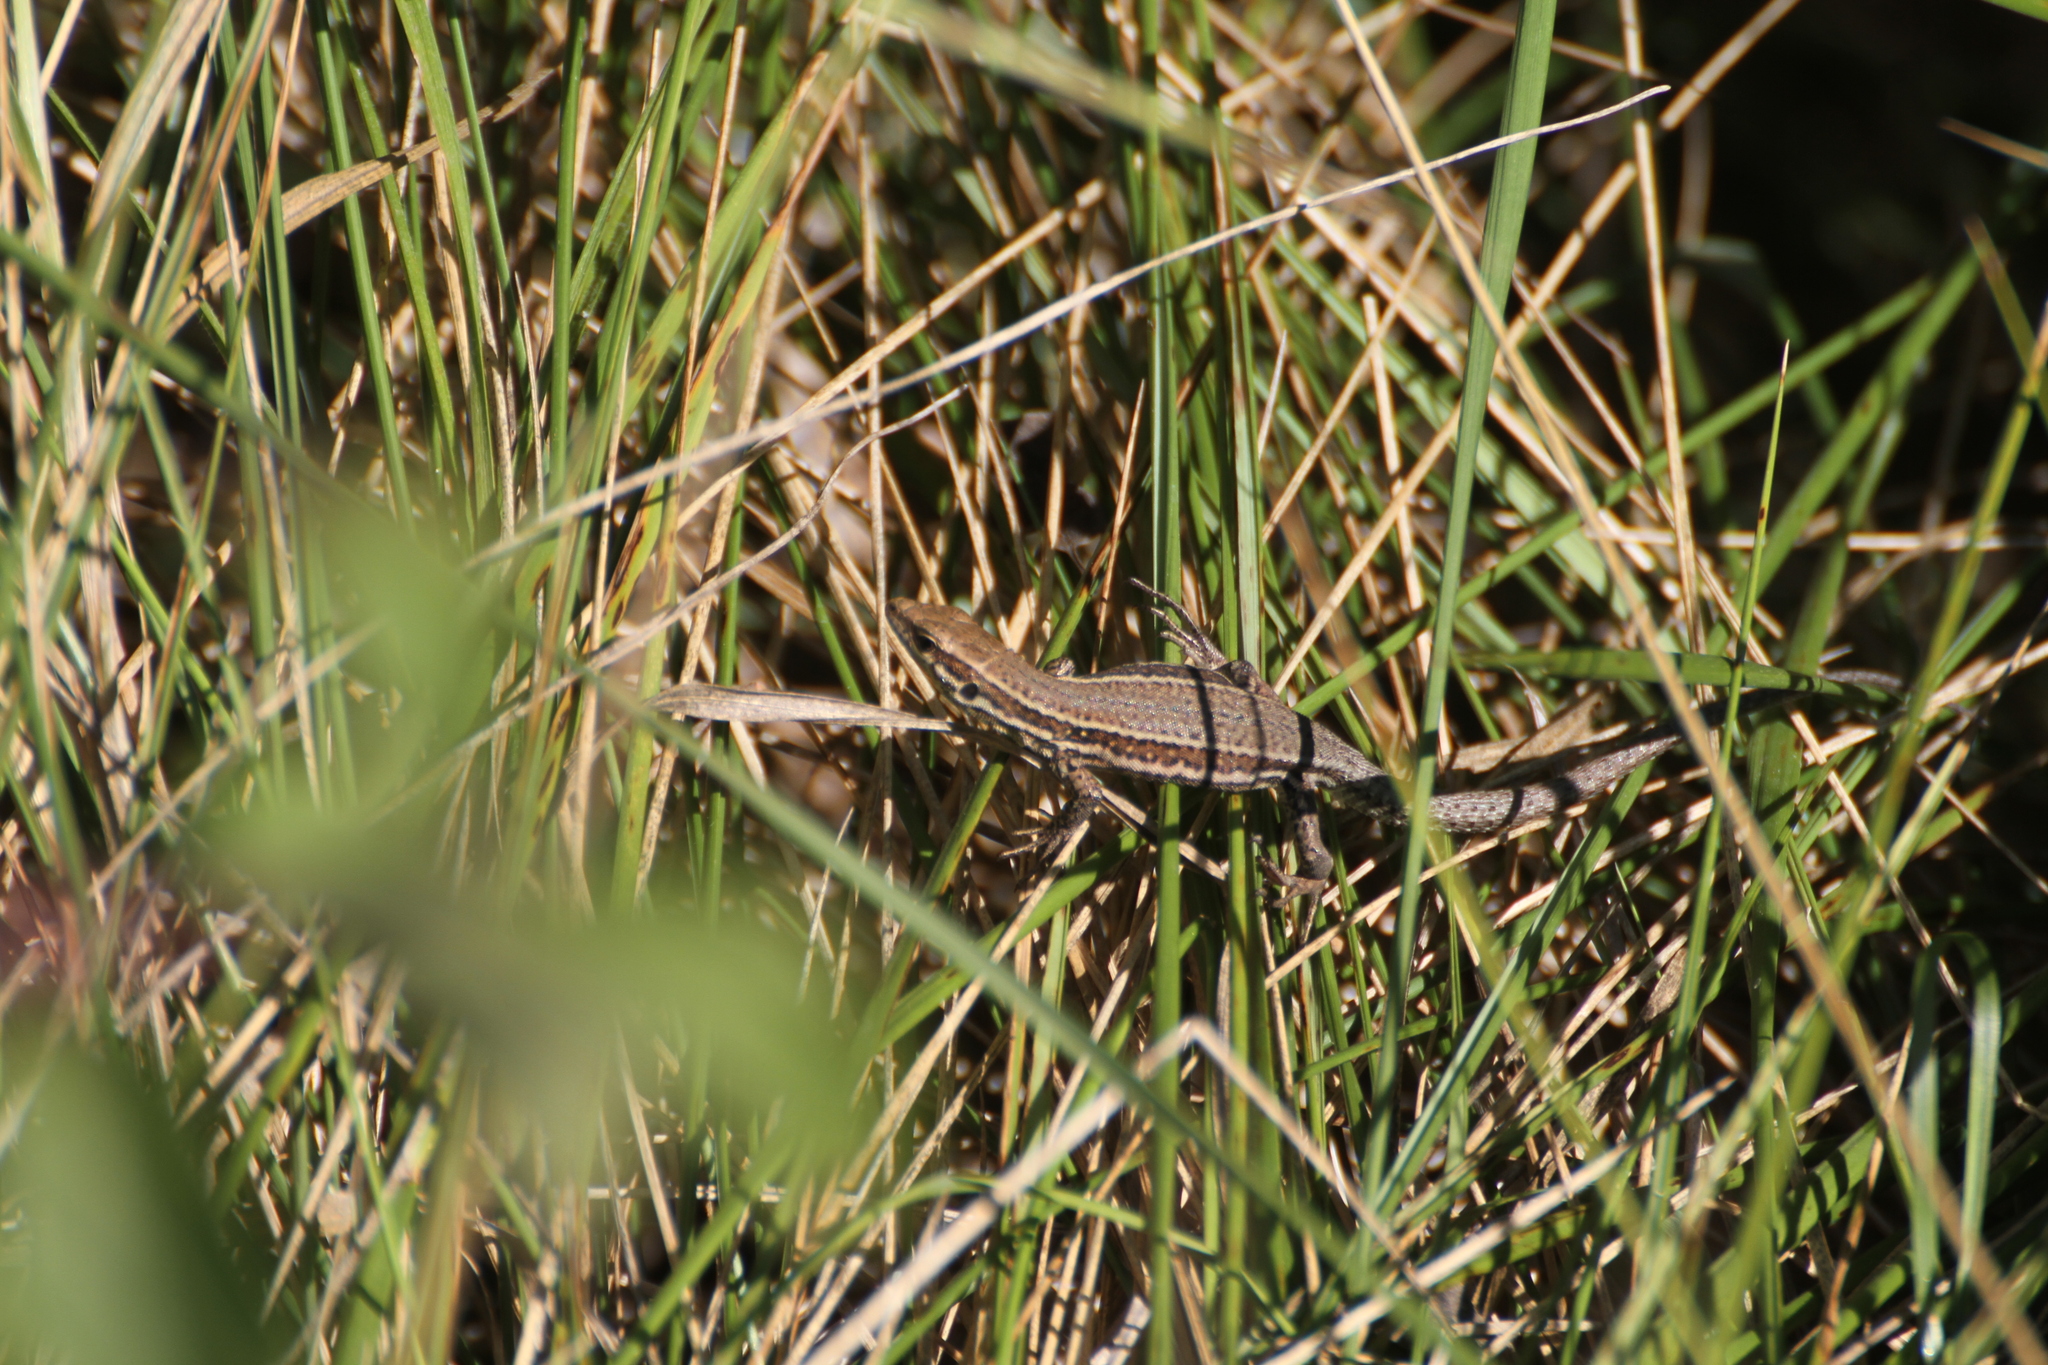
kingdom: Animalia
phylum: Chordata
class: Squamata
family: Lacertidae
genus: Podarcis
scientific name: Podarcis muralis
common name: Common wall lizard
